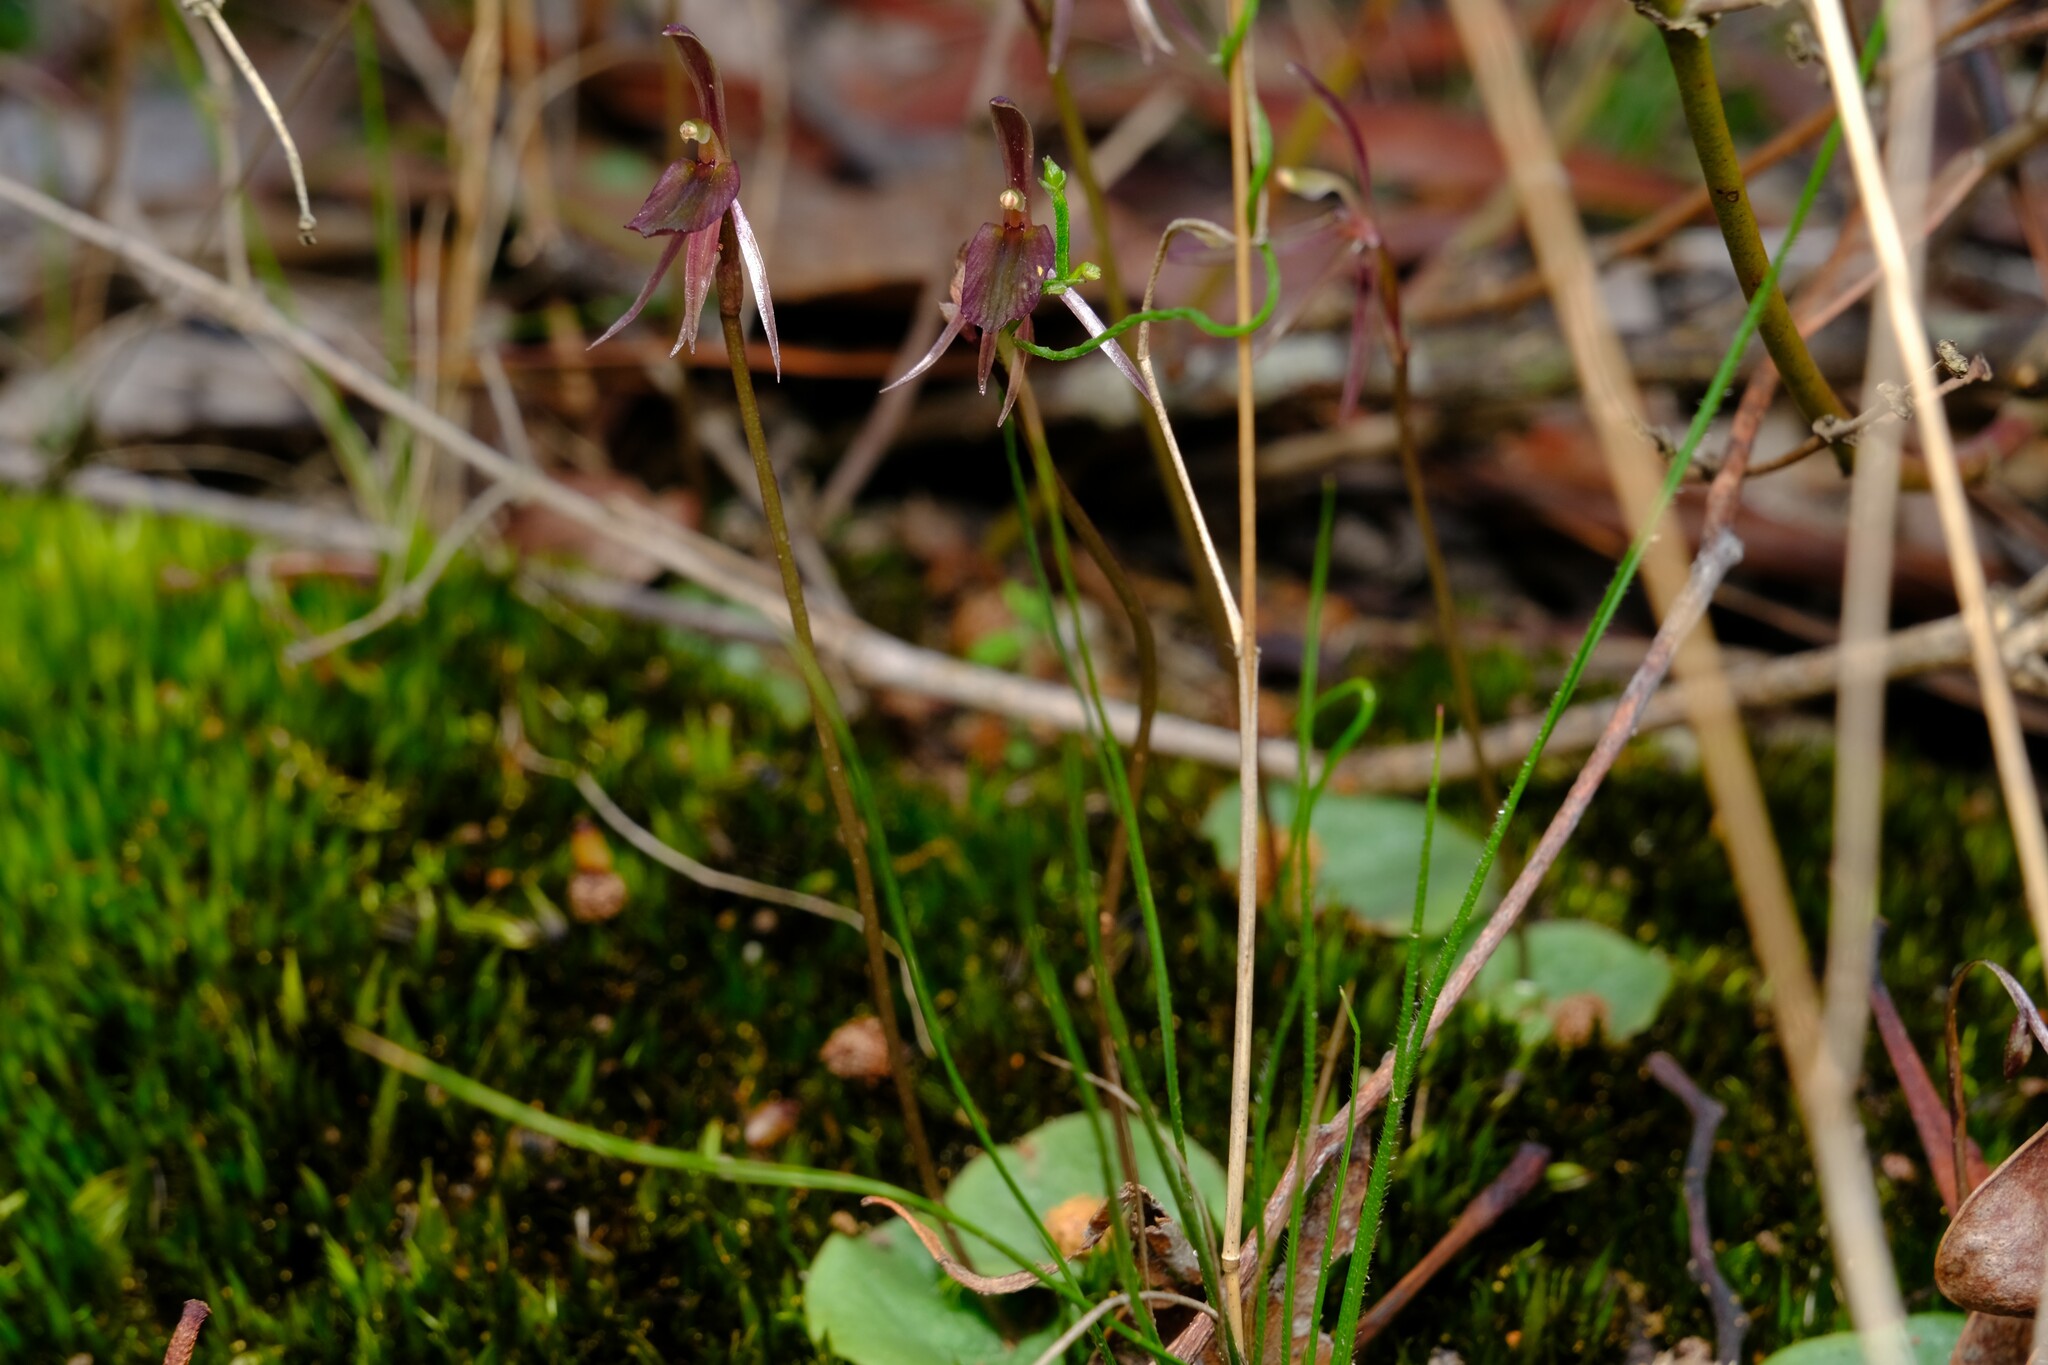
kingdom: Plantae
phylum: Tracheophyta
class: Liliopsida
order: Asparagales
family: Orchidaceae
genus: Cyrtostylis
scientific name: Cyrtostylis reniformis
